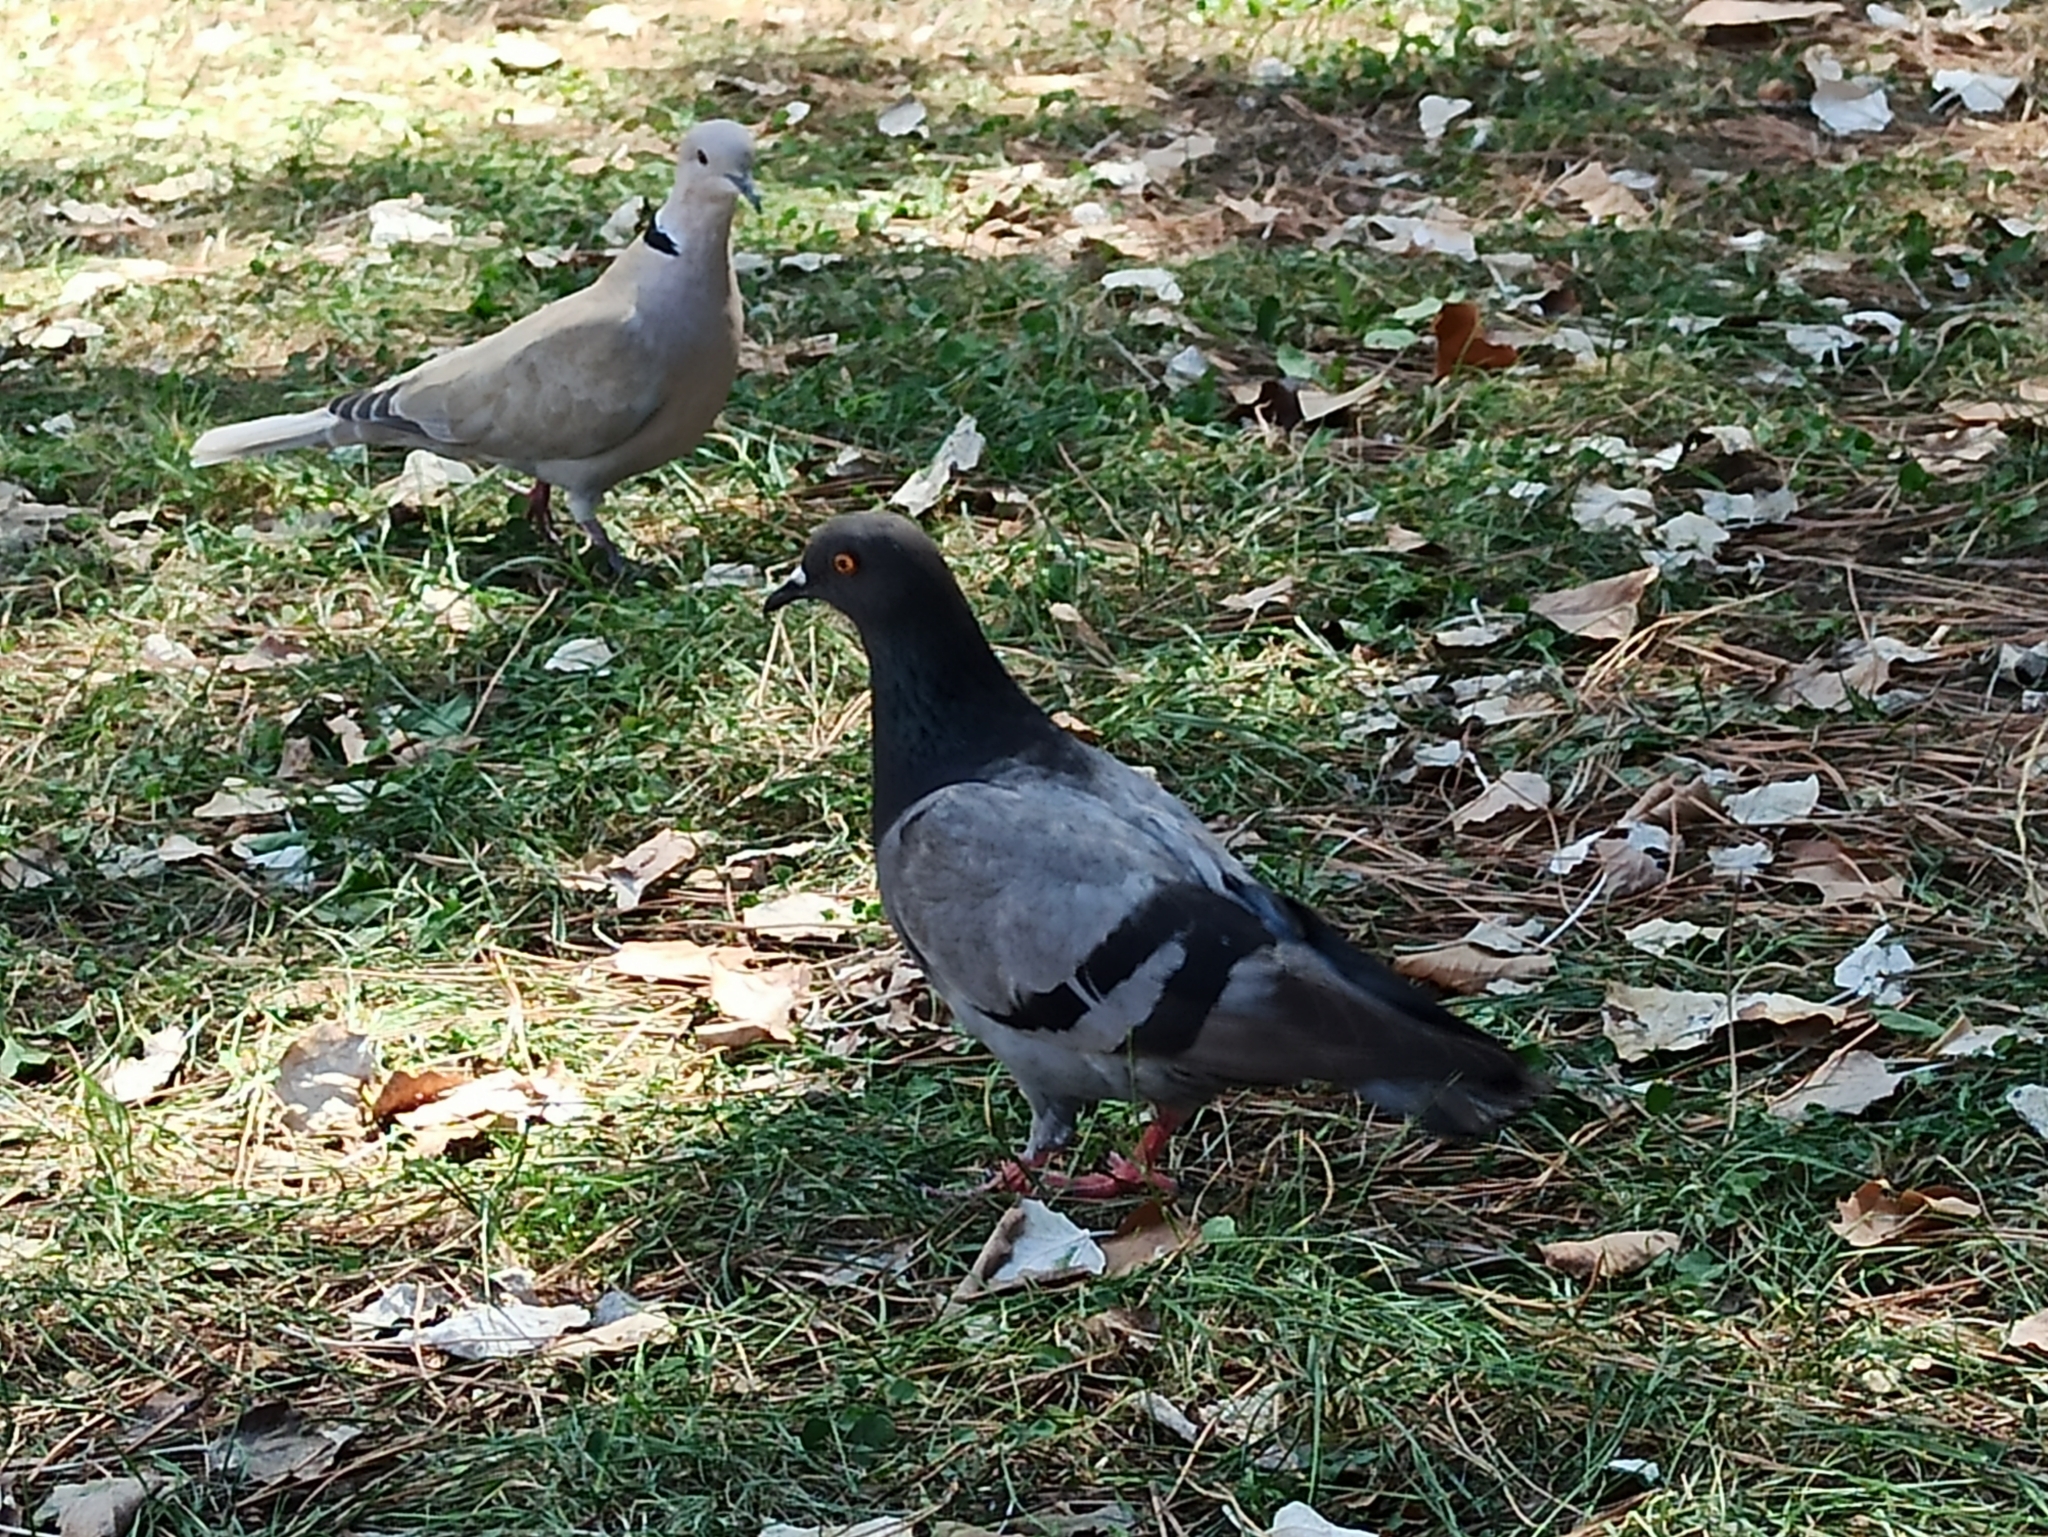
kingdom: Animalia
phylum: Chordata
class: Aves
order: Columbiformes
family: Columbidae
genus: Columba
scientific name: Columba livia
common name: Rock pigeon
